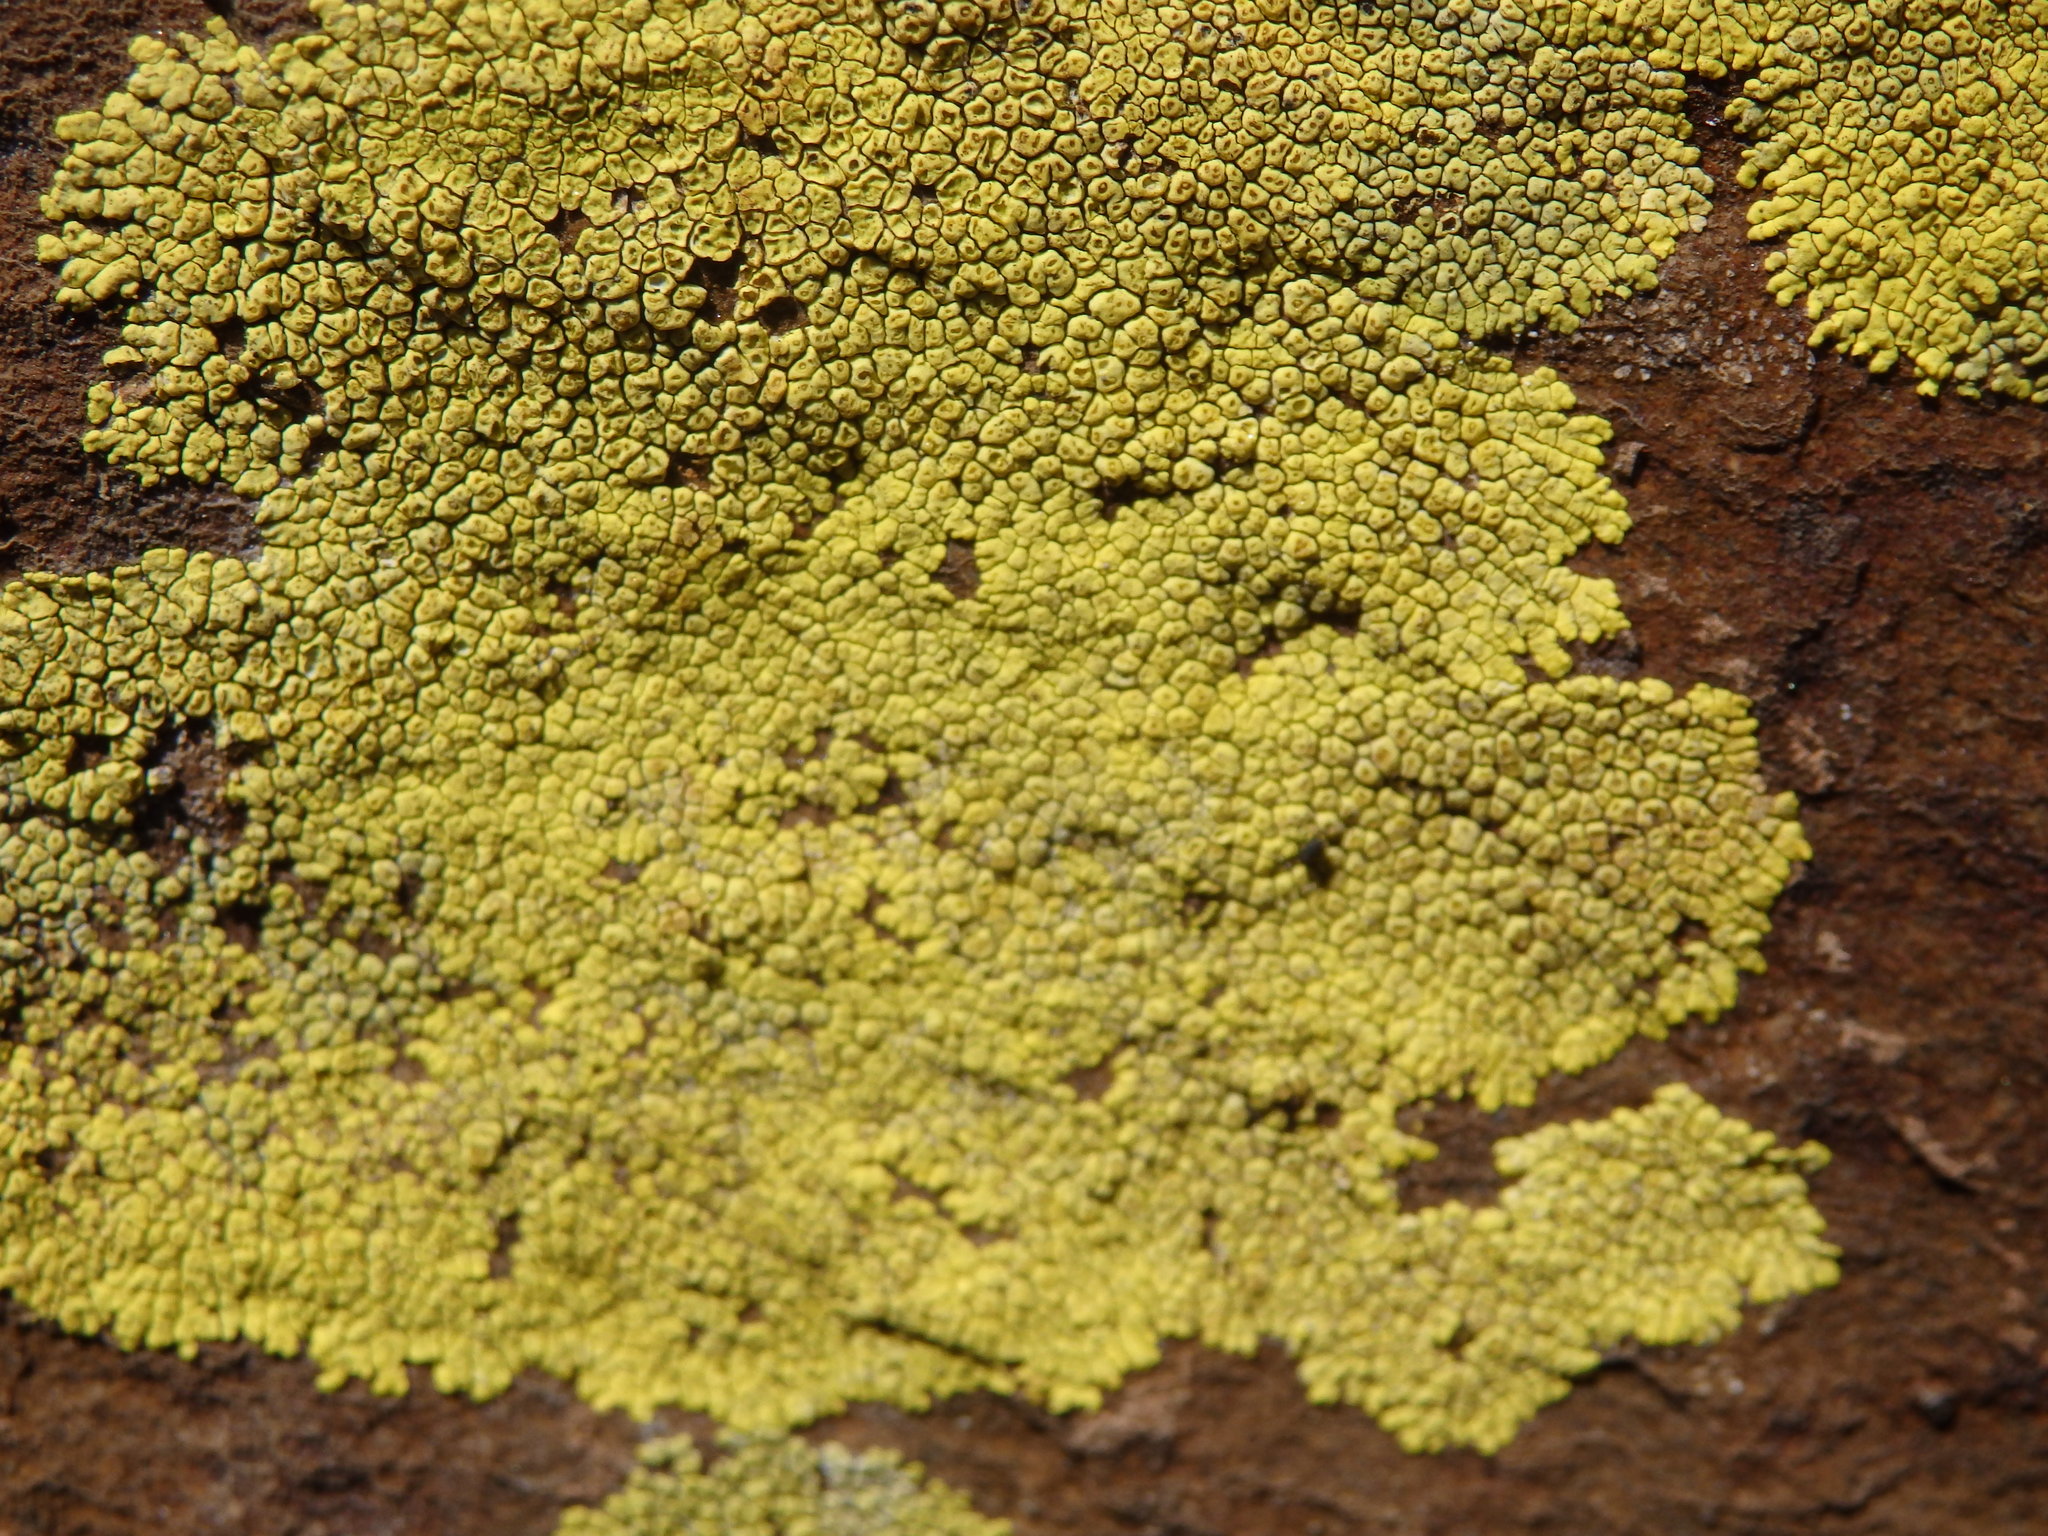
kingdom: Fungi
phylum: Ascomycota
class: Lecanoromycetes
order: Acarosporales
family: Acarosporaceae
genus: Pleopsidium
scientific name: Pleopsidium oxytonum
